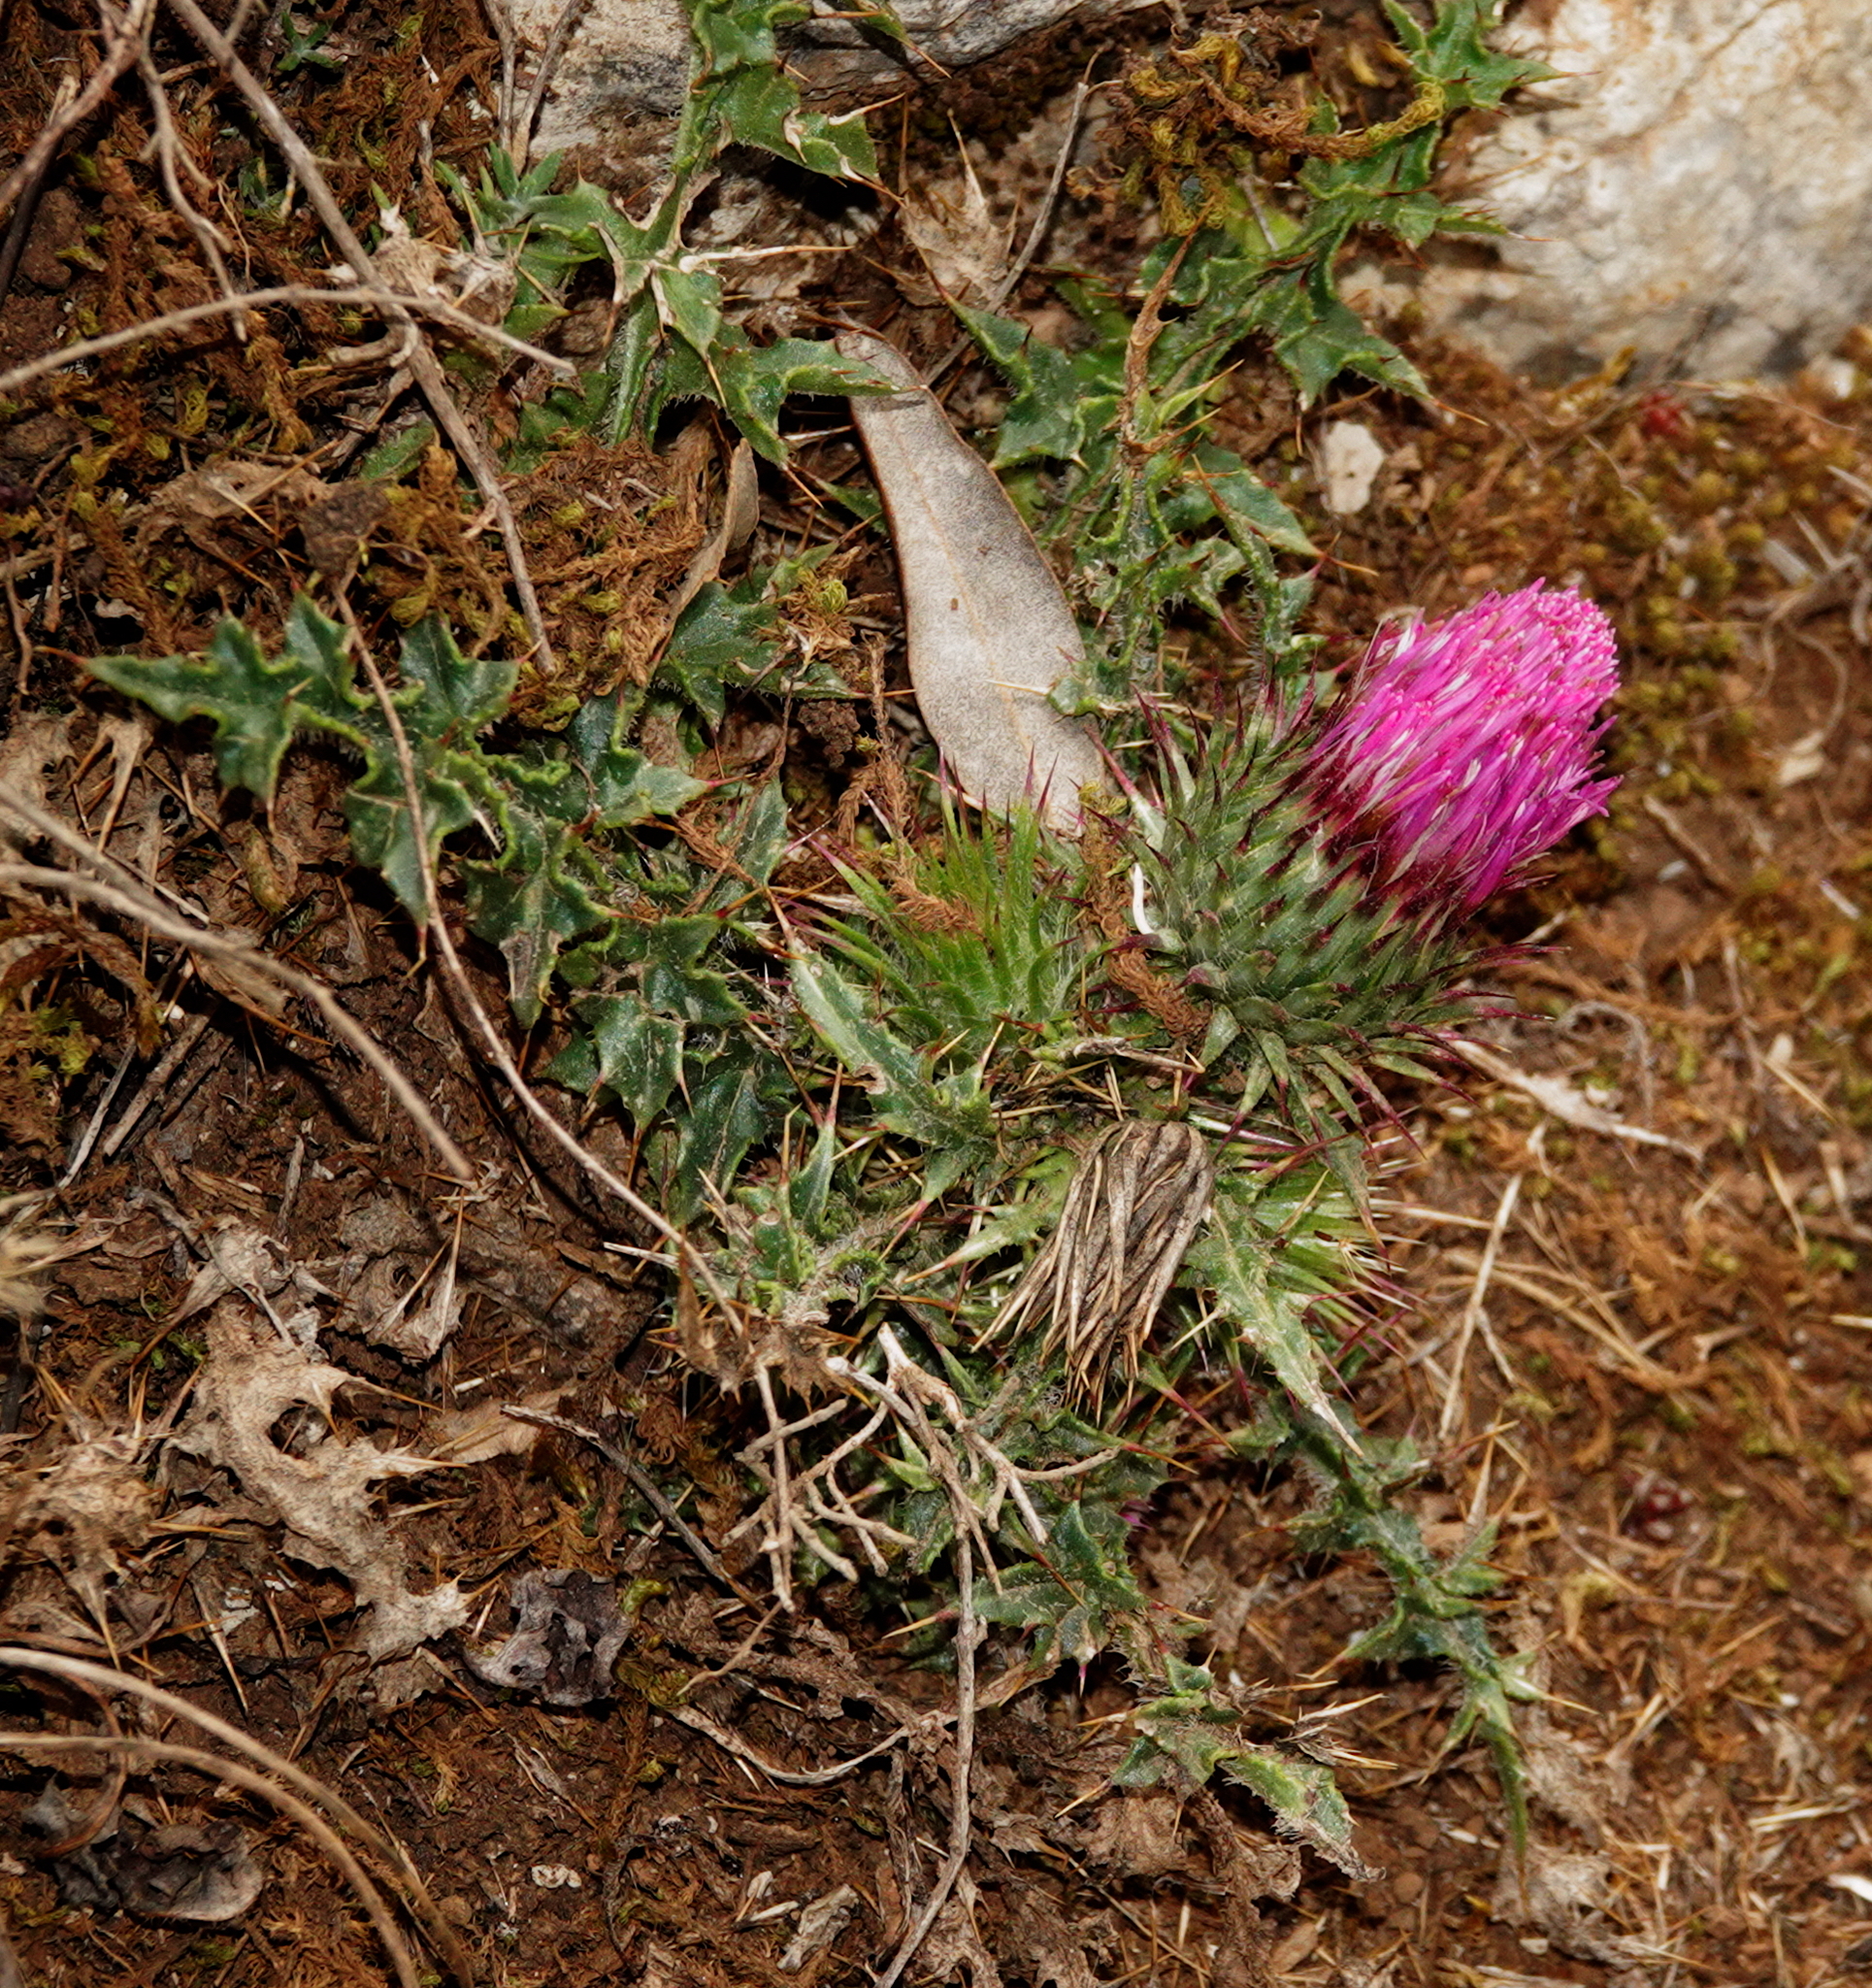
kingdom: Plantae
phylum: Tracheophyta
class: Magnoliopsida
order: Asterales
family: Asteraceae
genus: Carduus
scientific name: Carduus broteroi
